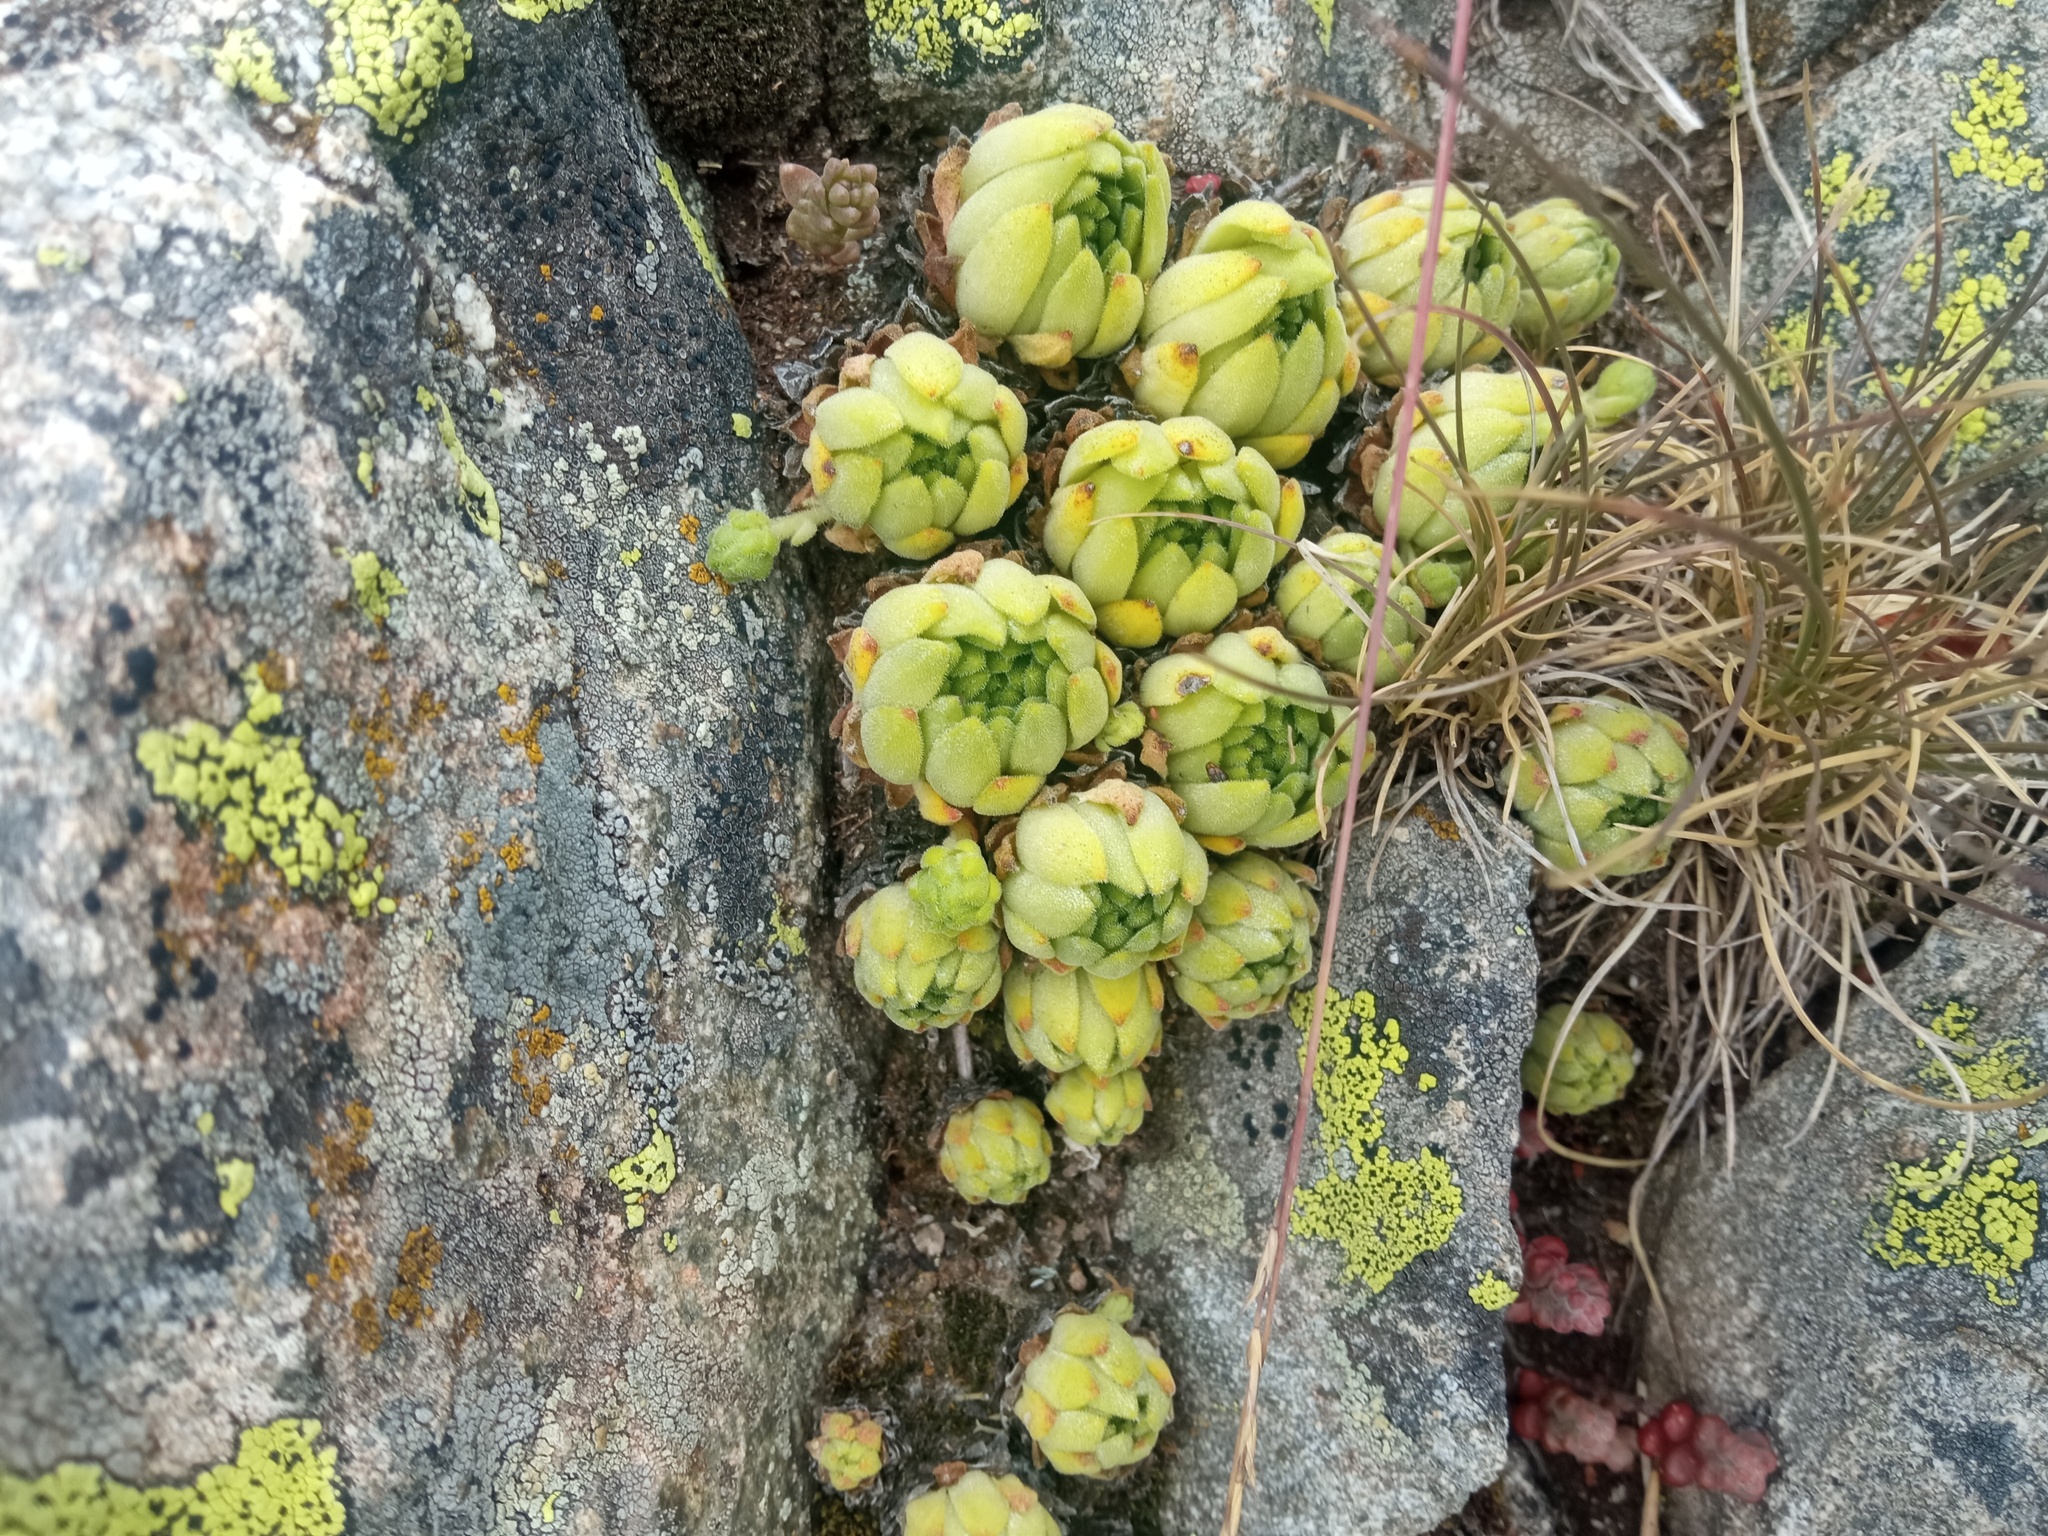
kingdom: Plantae
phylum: Tracheophyta
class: Magnoliopsida
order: Saxifragales
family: Crassulaceae
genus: Sempervivum
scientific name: Sempervivum montanum
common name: Mountain house-leek
